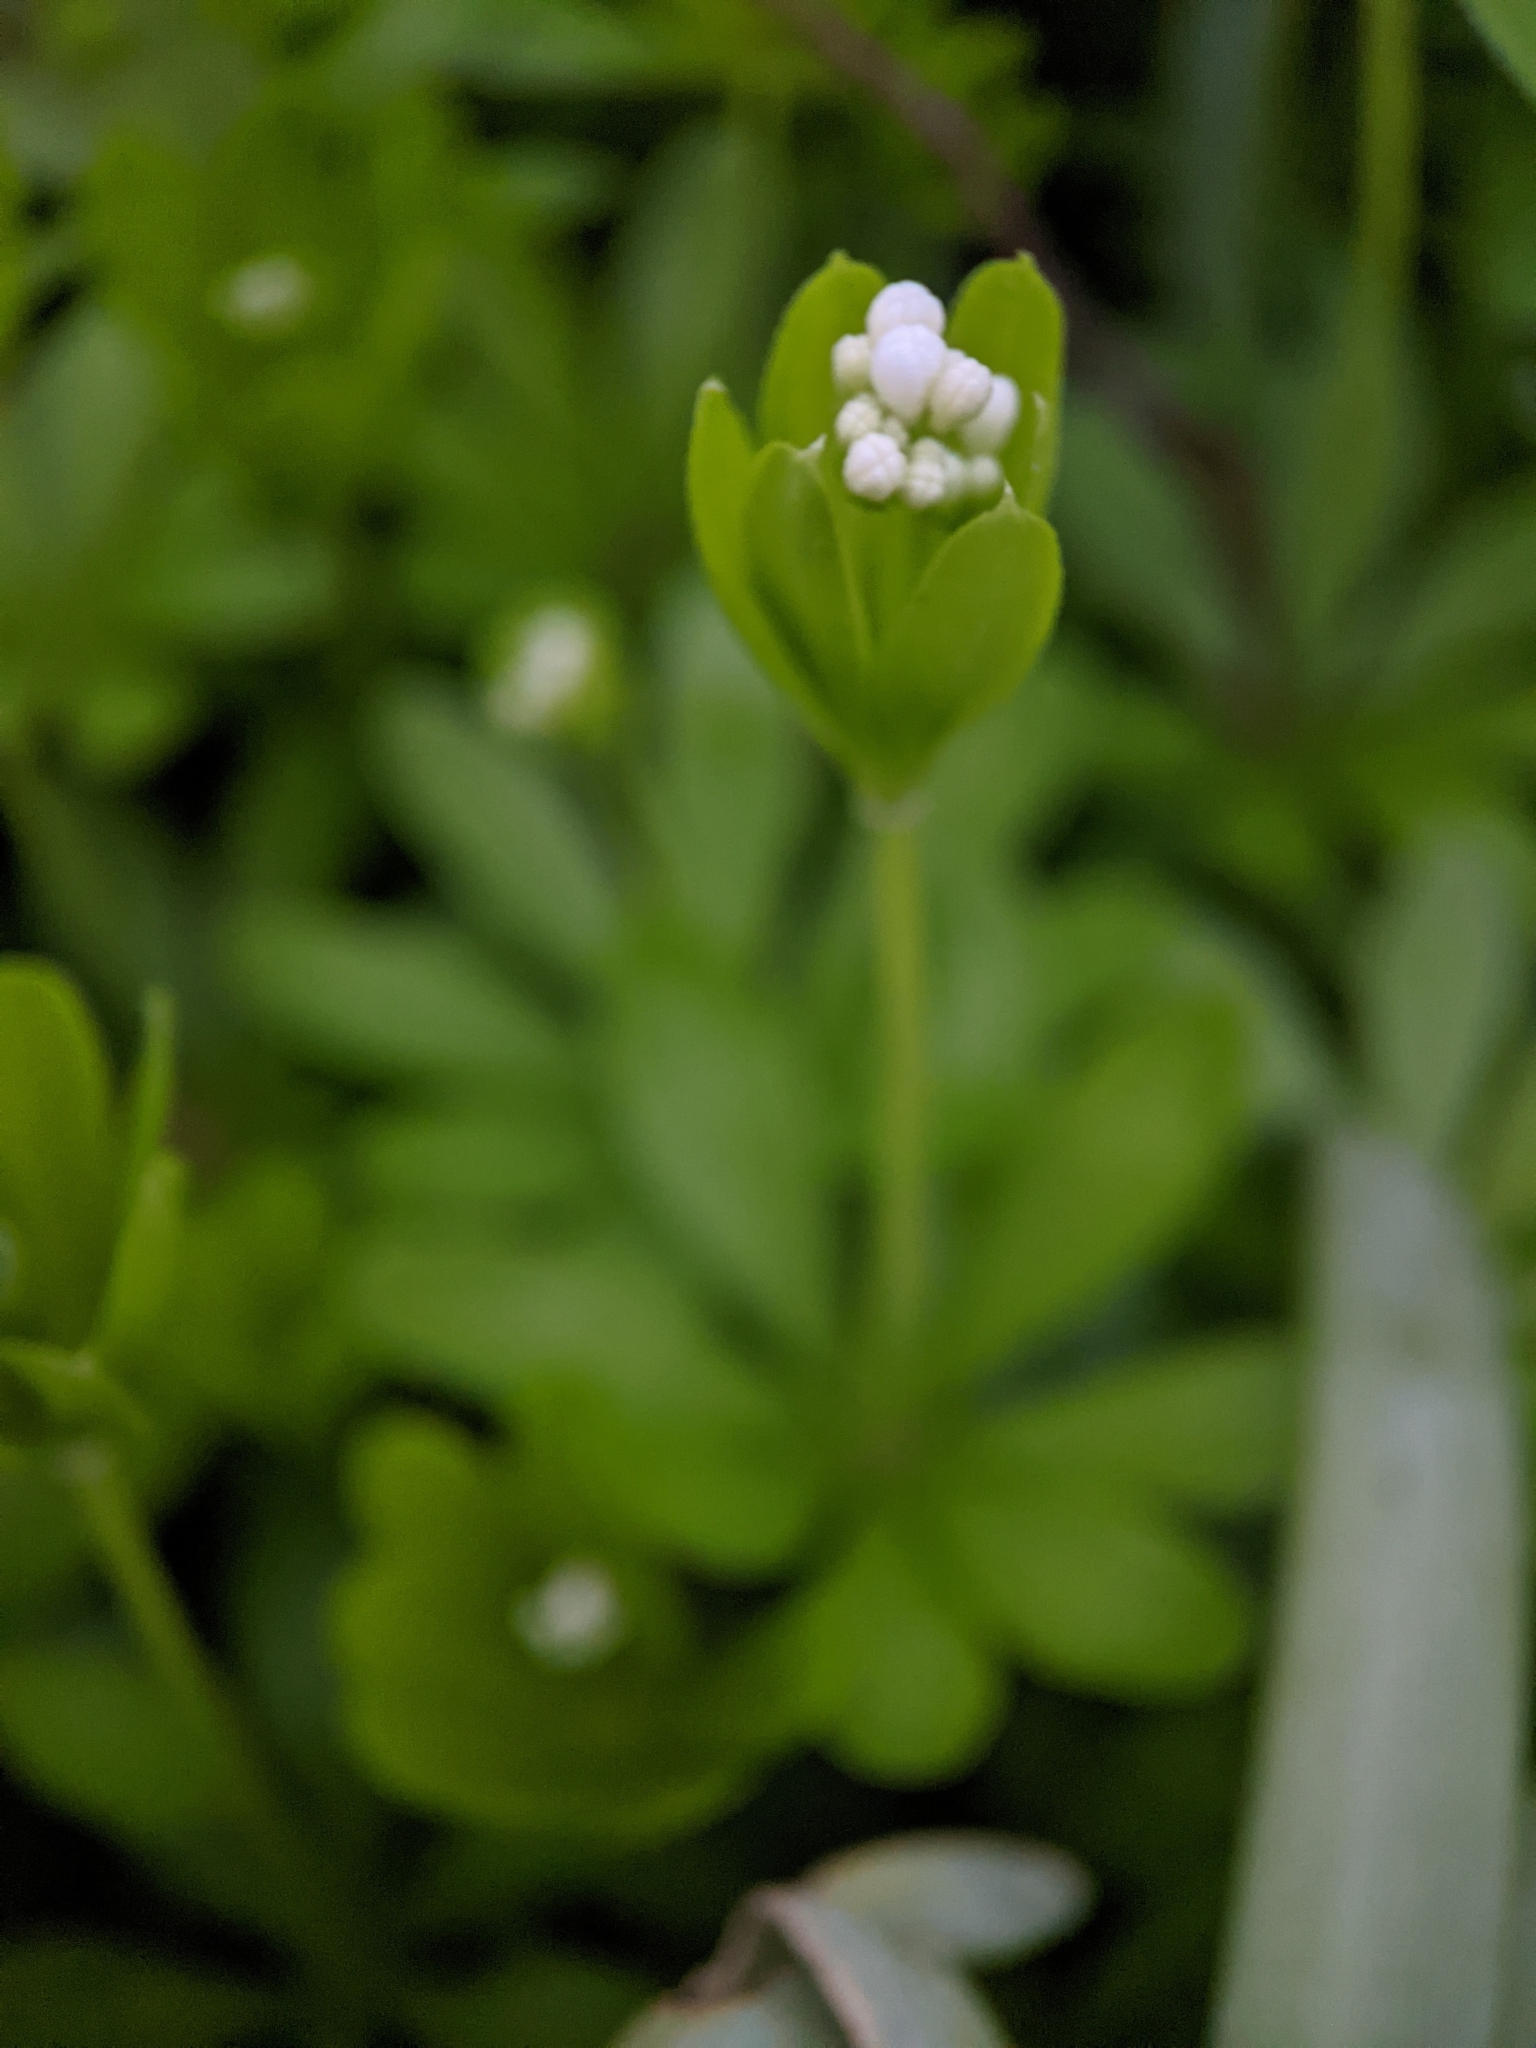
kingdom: Plantae
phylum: Tracheophyta
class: Magnoliopsida
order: Gentianales
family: Rubiaceae
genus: Galium
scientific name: Galium odoratum
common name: Sweet woodruff
